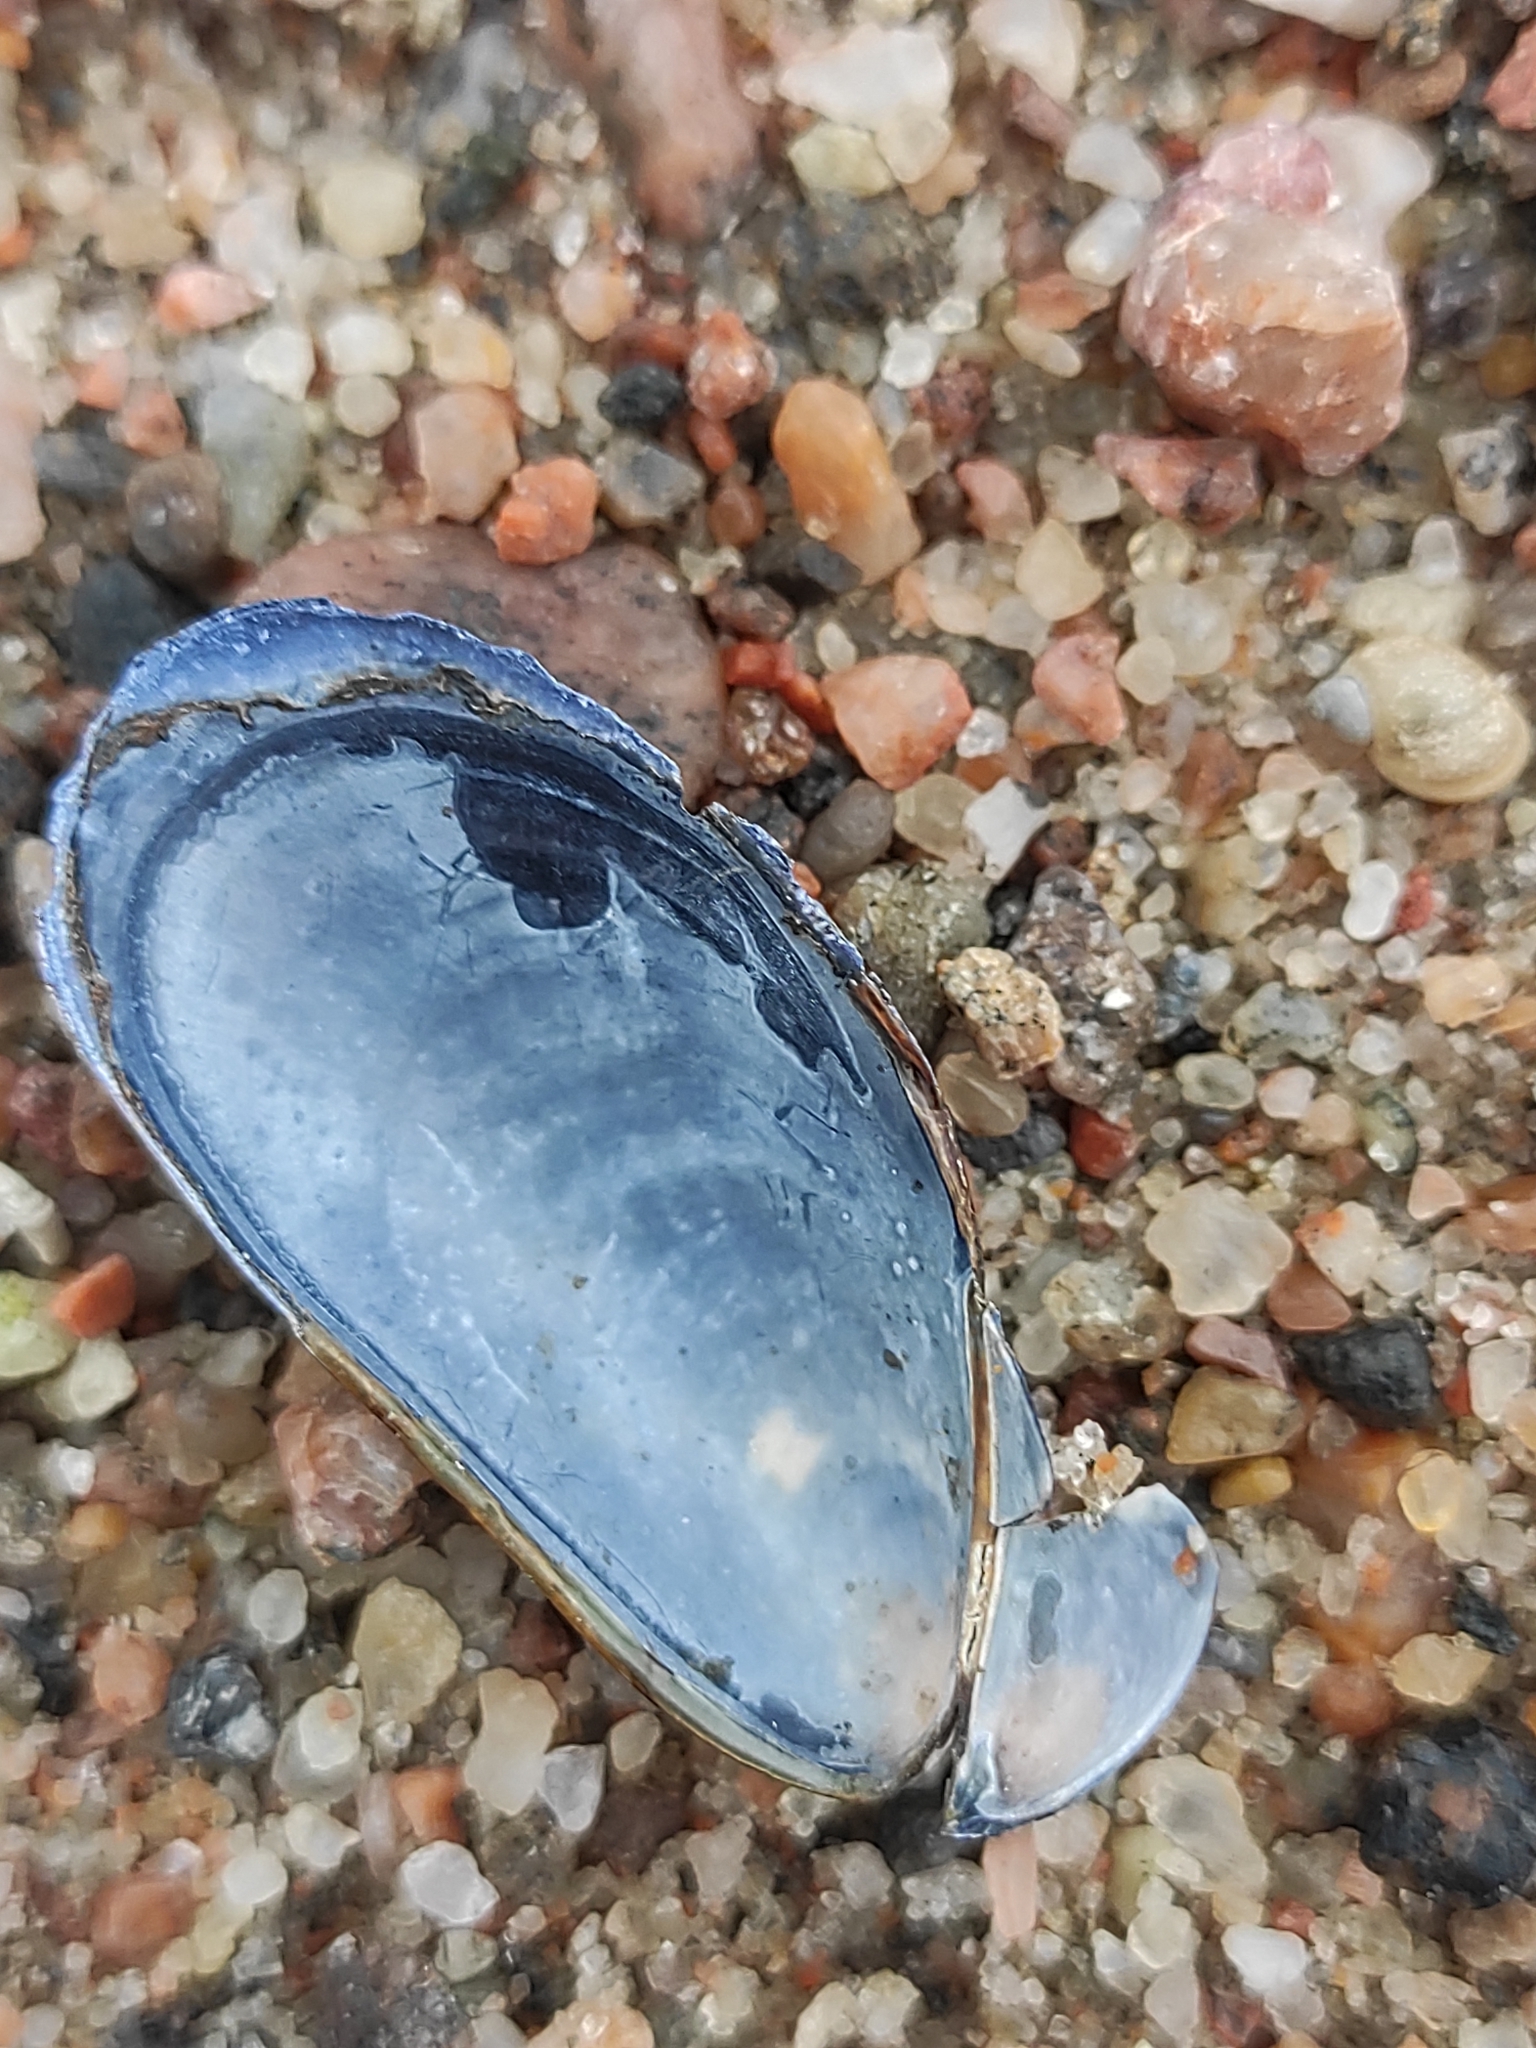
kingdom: Animalia
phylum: Mollusca
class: Bivalvia
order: Mytilida
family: Mytilidae
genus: Mytilus
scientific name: Mytilus trossulus
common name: Northern blue mussel
